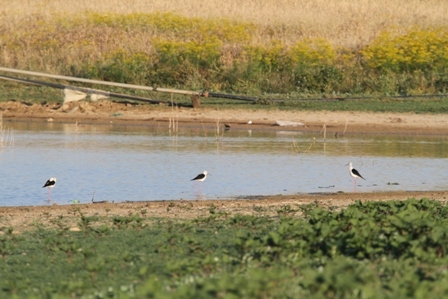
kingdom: Animalia
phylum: Chordata
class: Aves
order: Charadriiformes
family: Recurvirostridae
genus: Himantopus
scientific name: Himantopus himantopus
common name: Black-winged stilt
